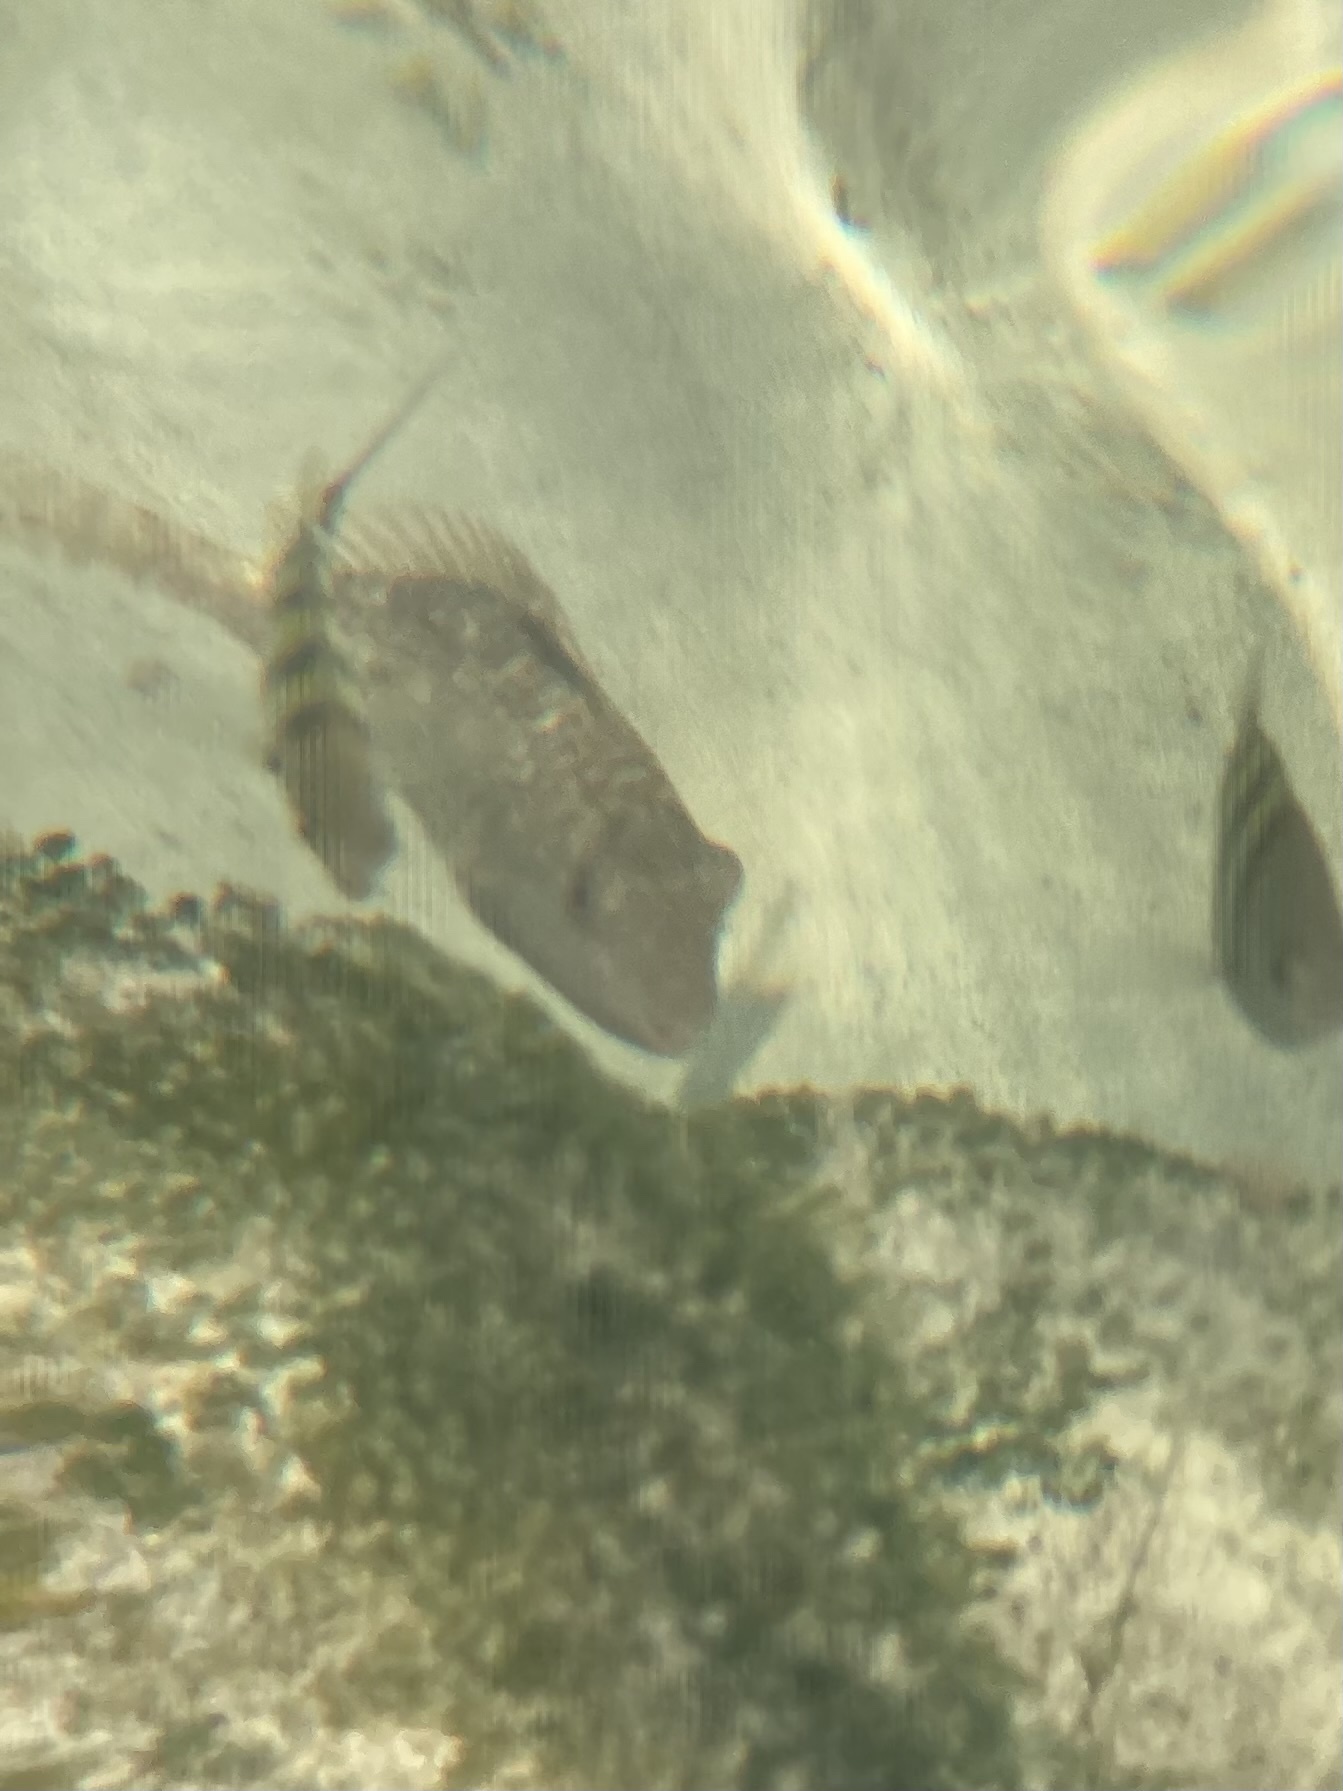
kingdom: Animalia
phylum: Chordata
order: Perciformes
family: Pomacentridae
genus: Abudefduf
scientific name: Abudefduf saxatilis
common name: Sergeant major
